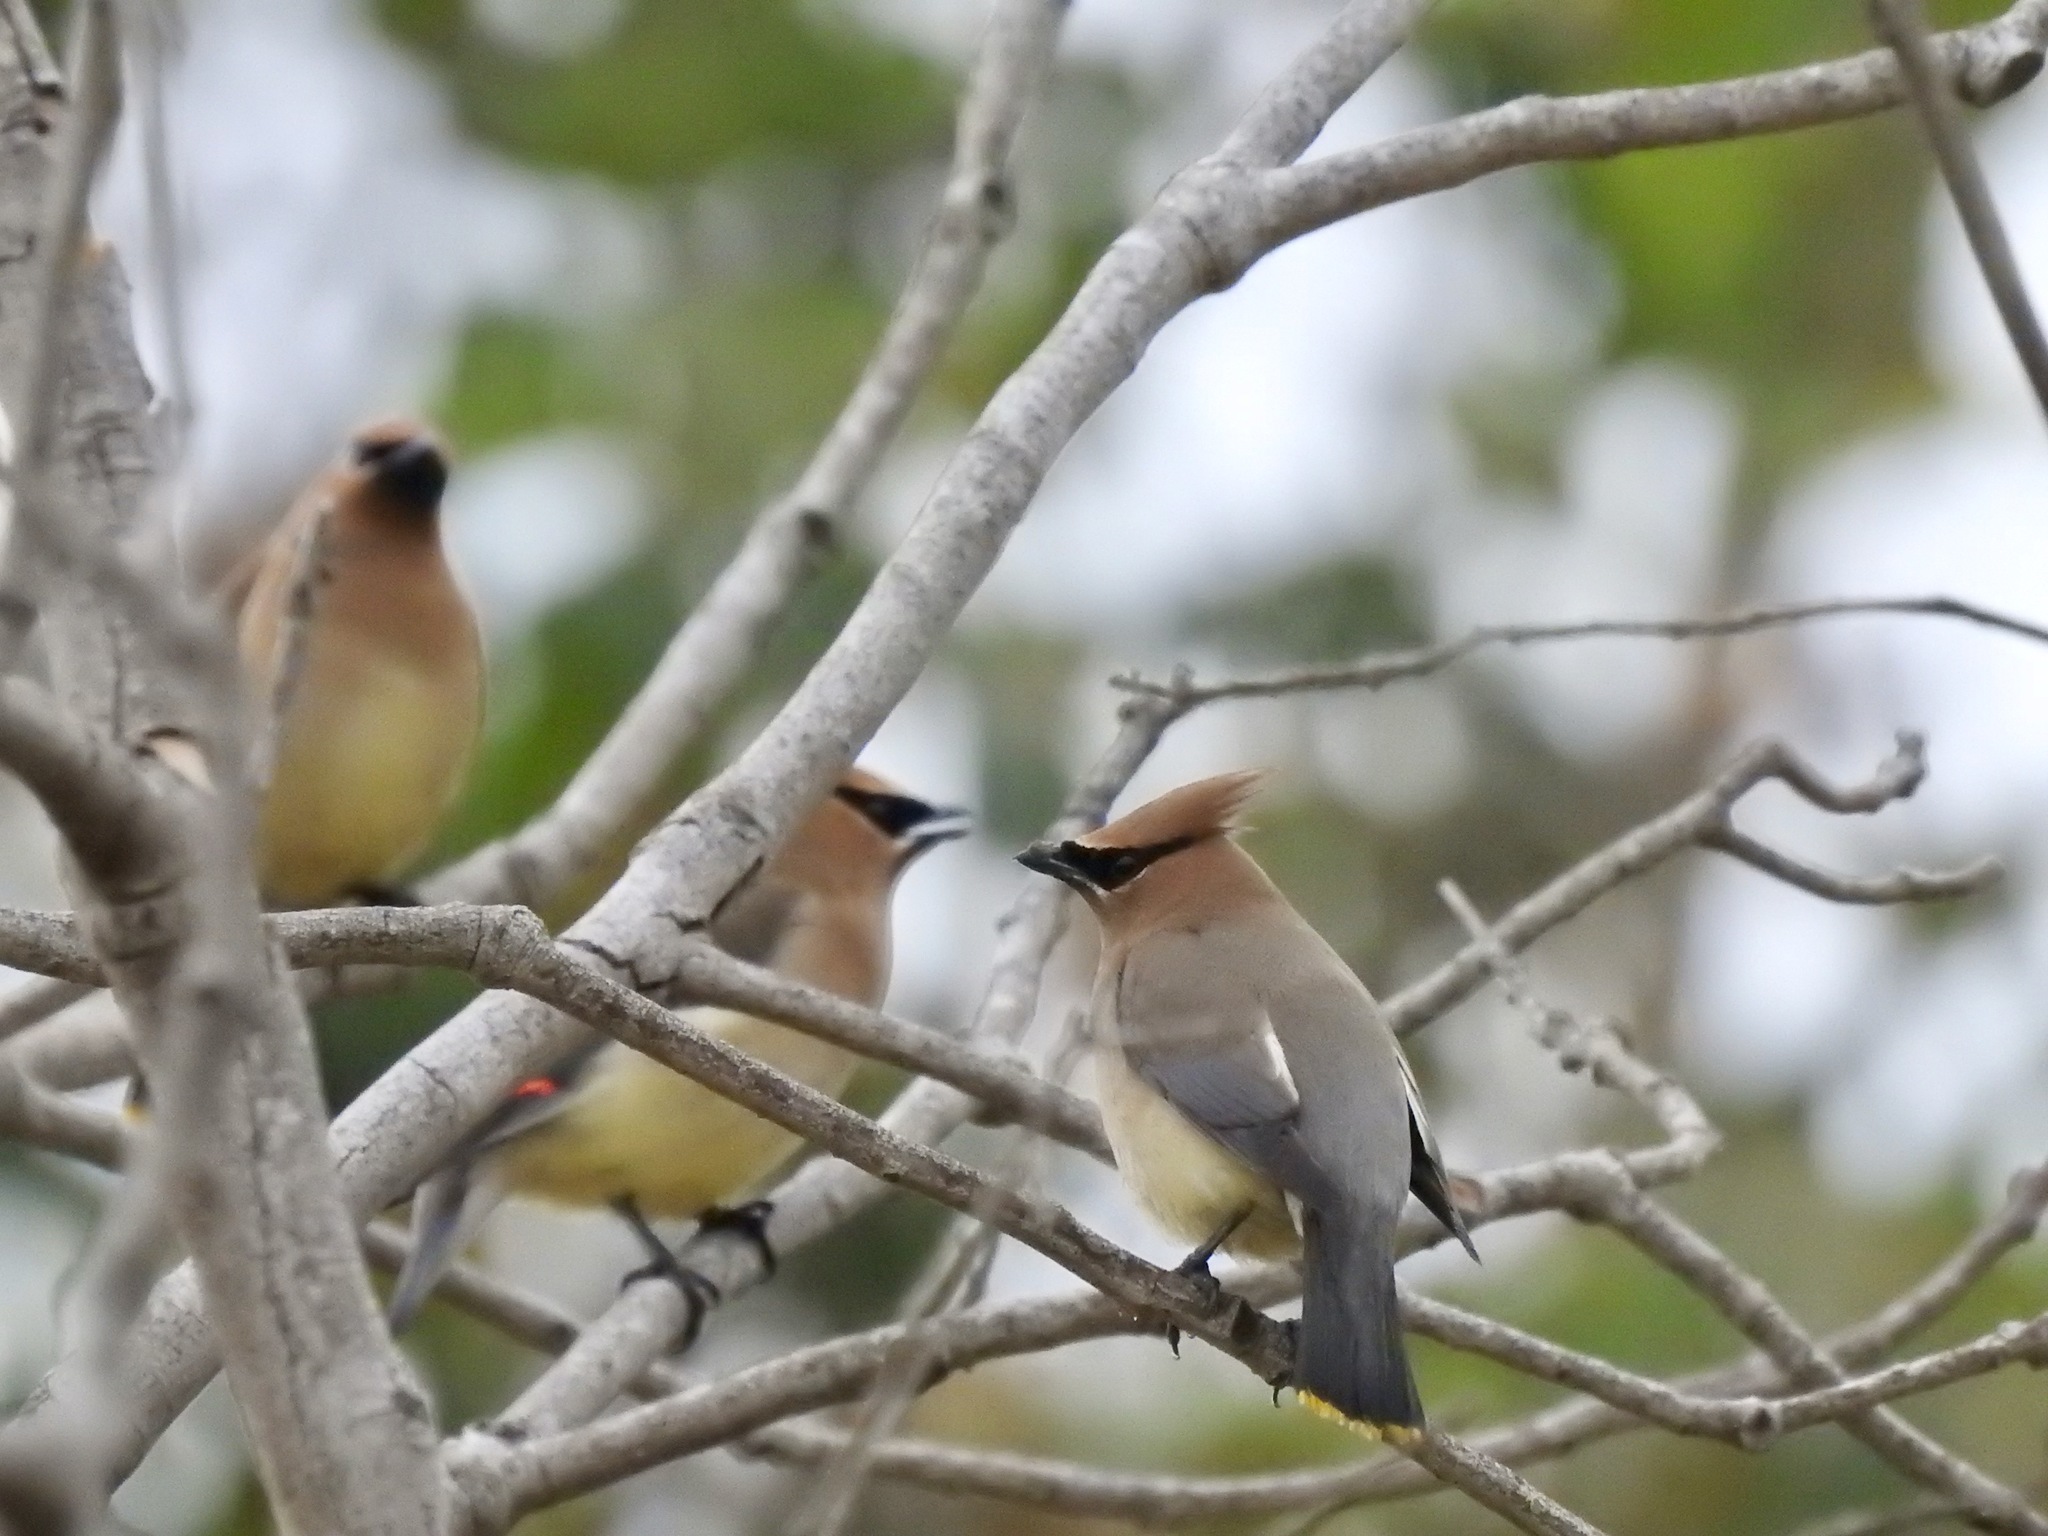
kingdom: Animalia
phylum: Chordata
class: Aves
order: Passeriformes
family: Bombycillidae
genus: Bombycilla
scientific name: Bombycilla cedrorum
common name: Cedar waxwing
